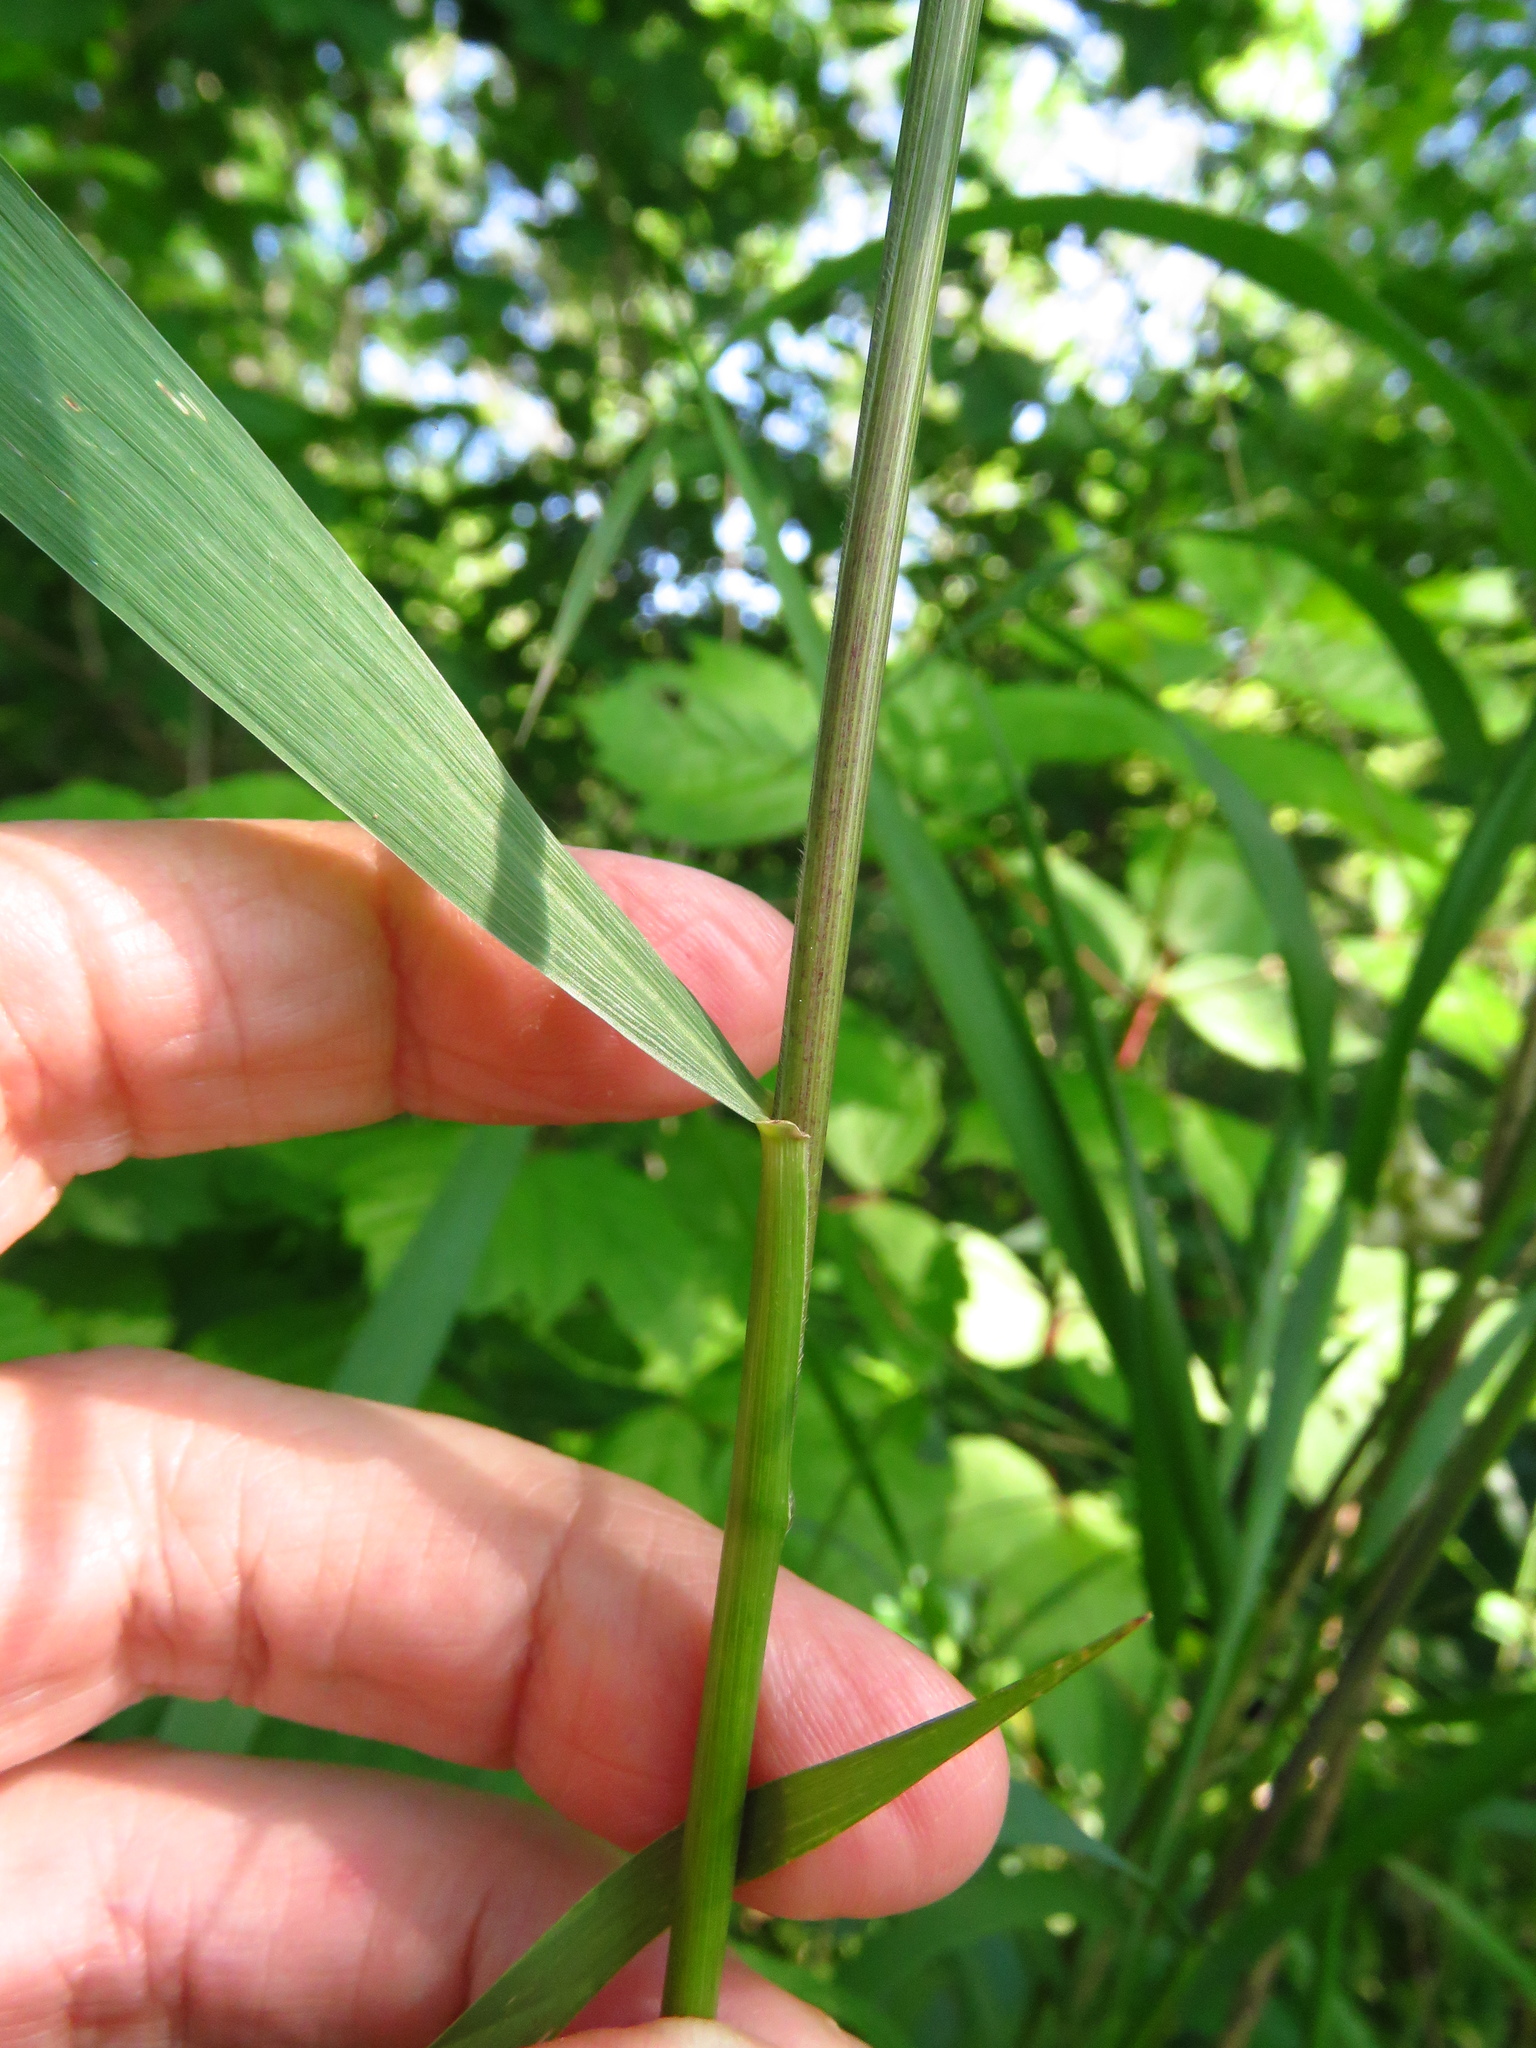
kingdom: Plantae
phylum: Tracheophyta
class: Liliopsida
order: Poales
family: Poaceae
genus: Elymus
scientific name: Elymus virginicus
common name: Common eastern wildrye
